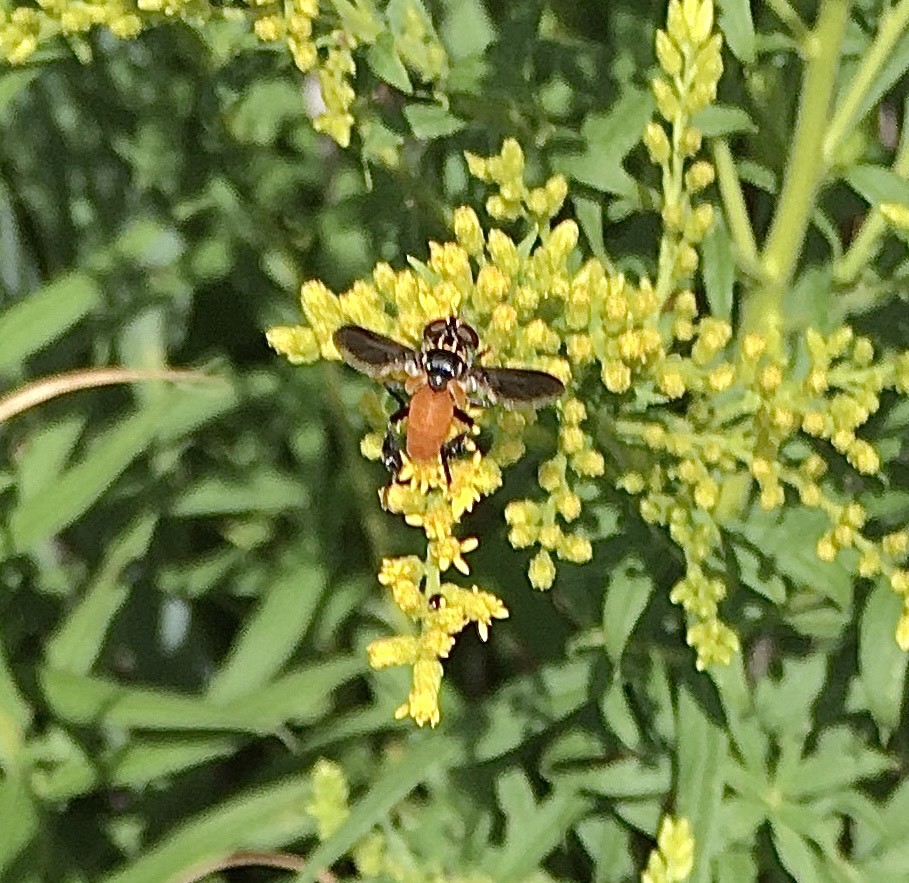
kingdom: Animalia
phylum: Arthropoda
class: Insecta
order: Diptera
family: Tachinidae
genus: Trichopoda
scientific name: Trichopoda pennipes
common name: Tachinid fly
